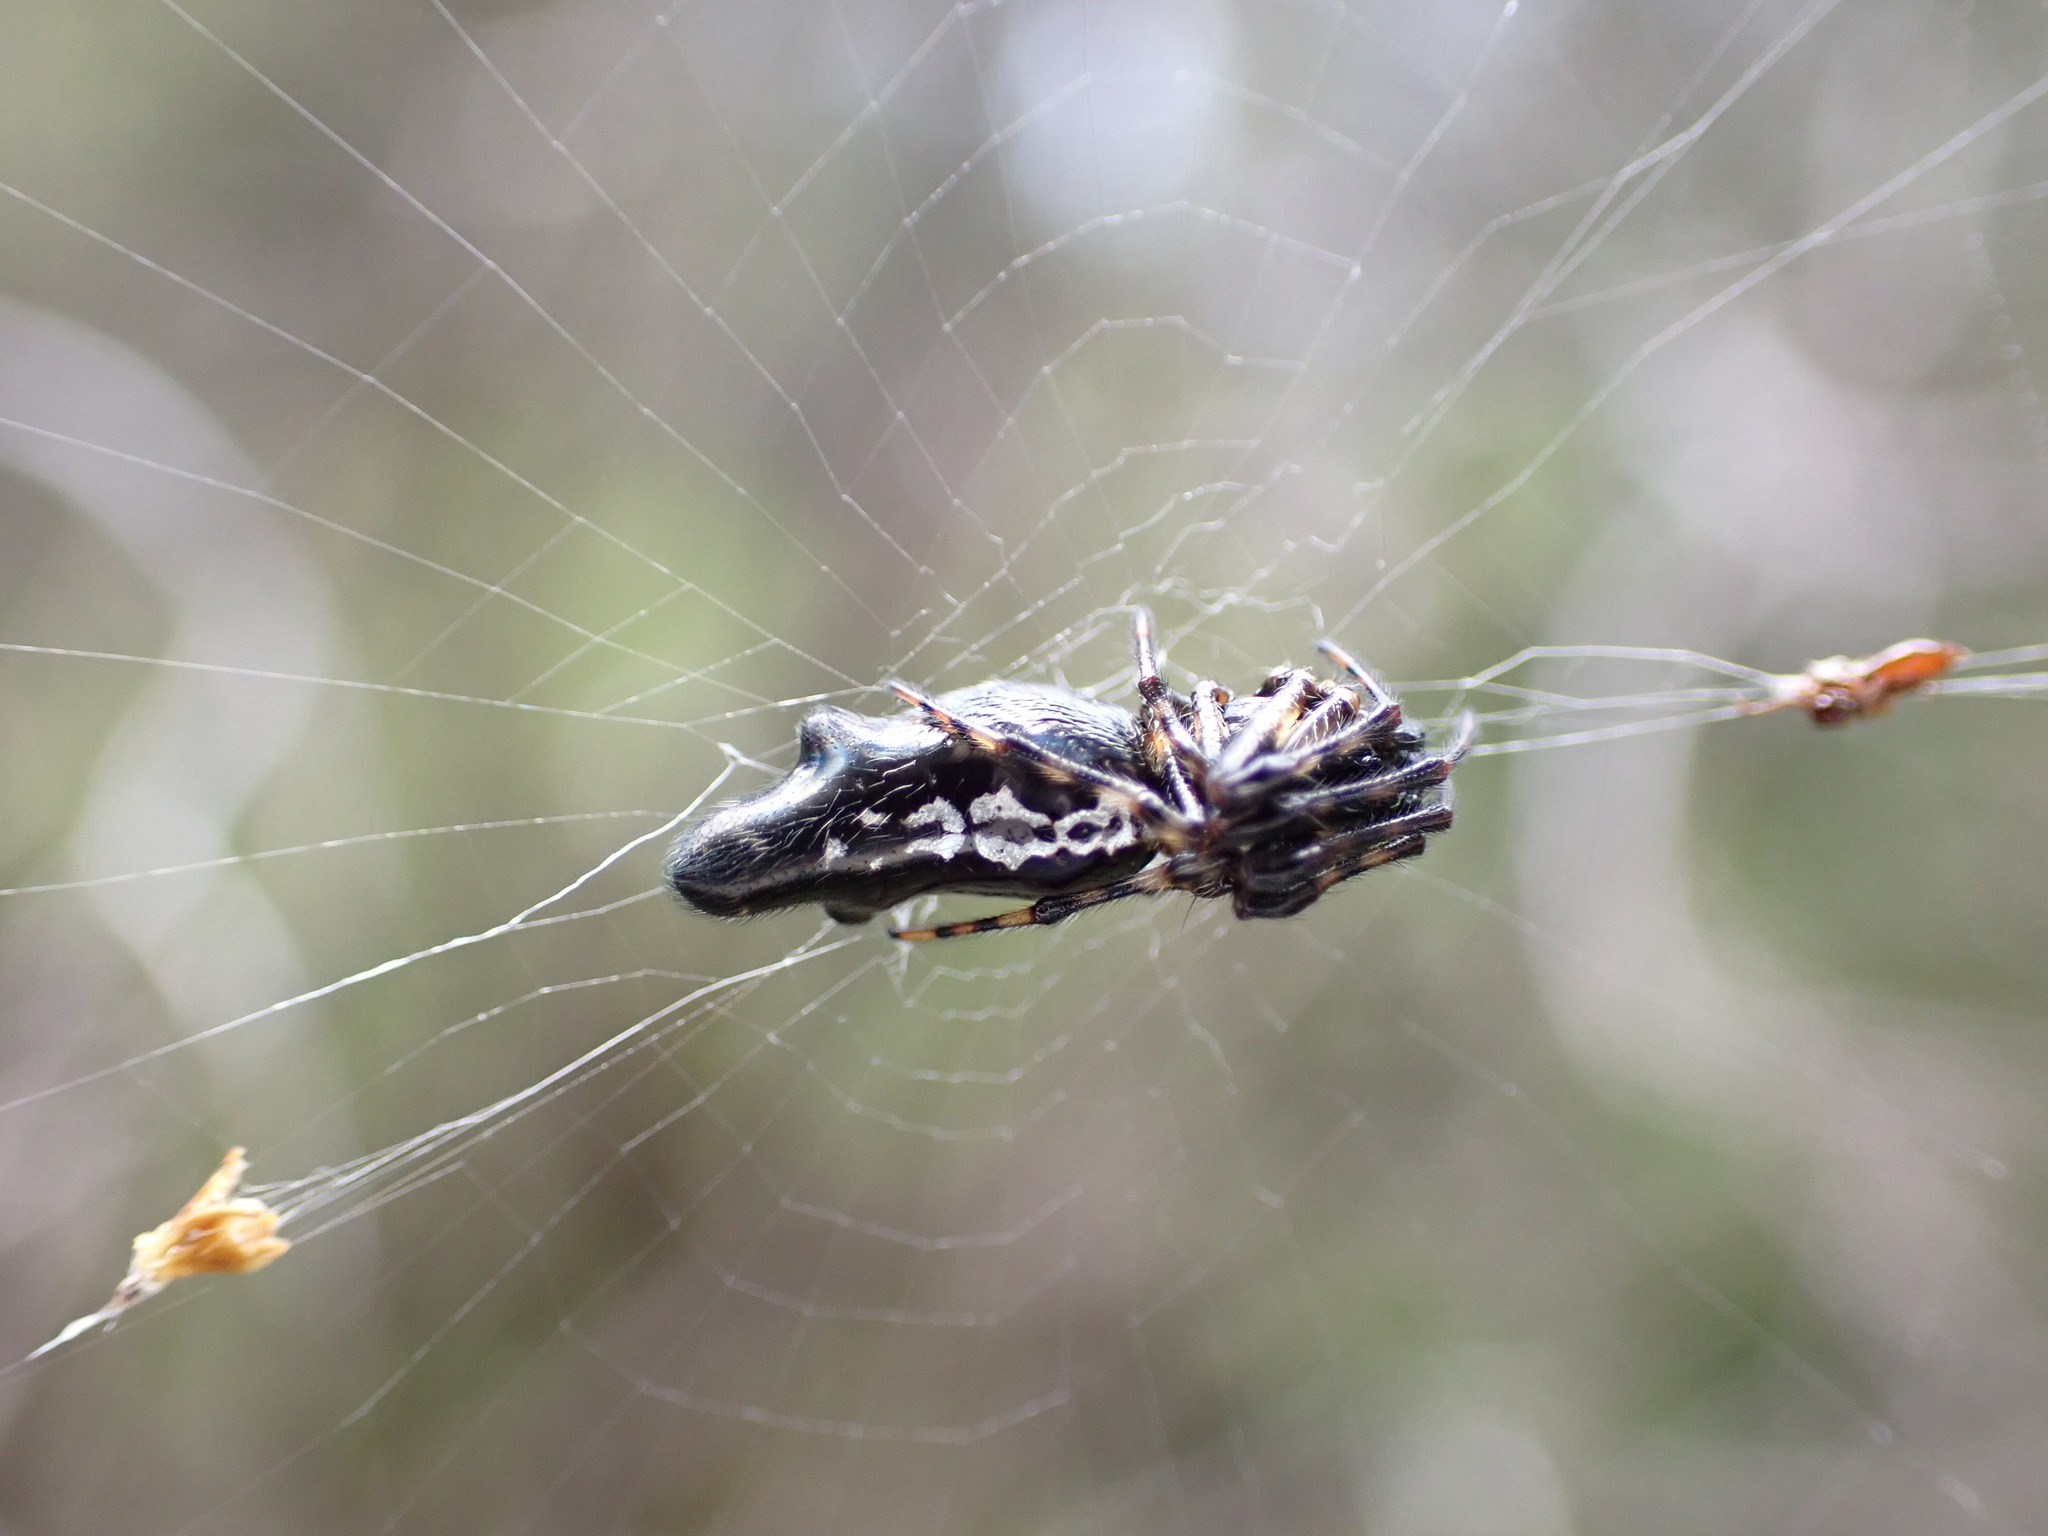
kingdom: Animalia
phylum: Arthropoda
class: Arachnida
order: Araneae
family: Araneidae
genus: Cyclosa
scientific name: Cyclosa trilobata
